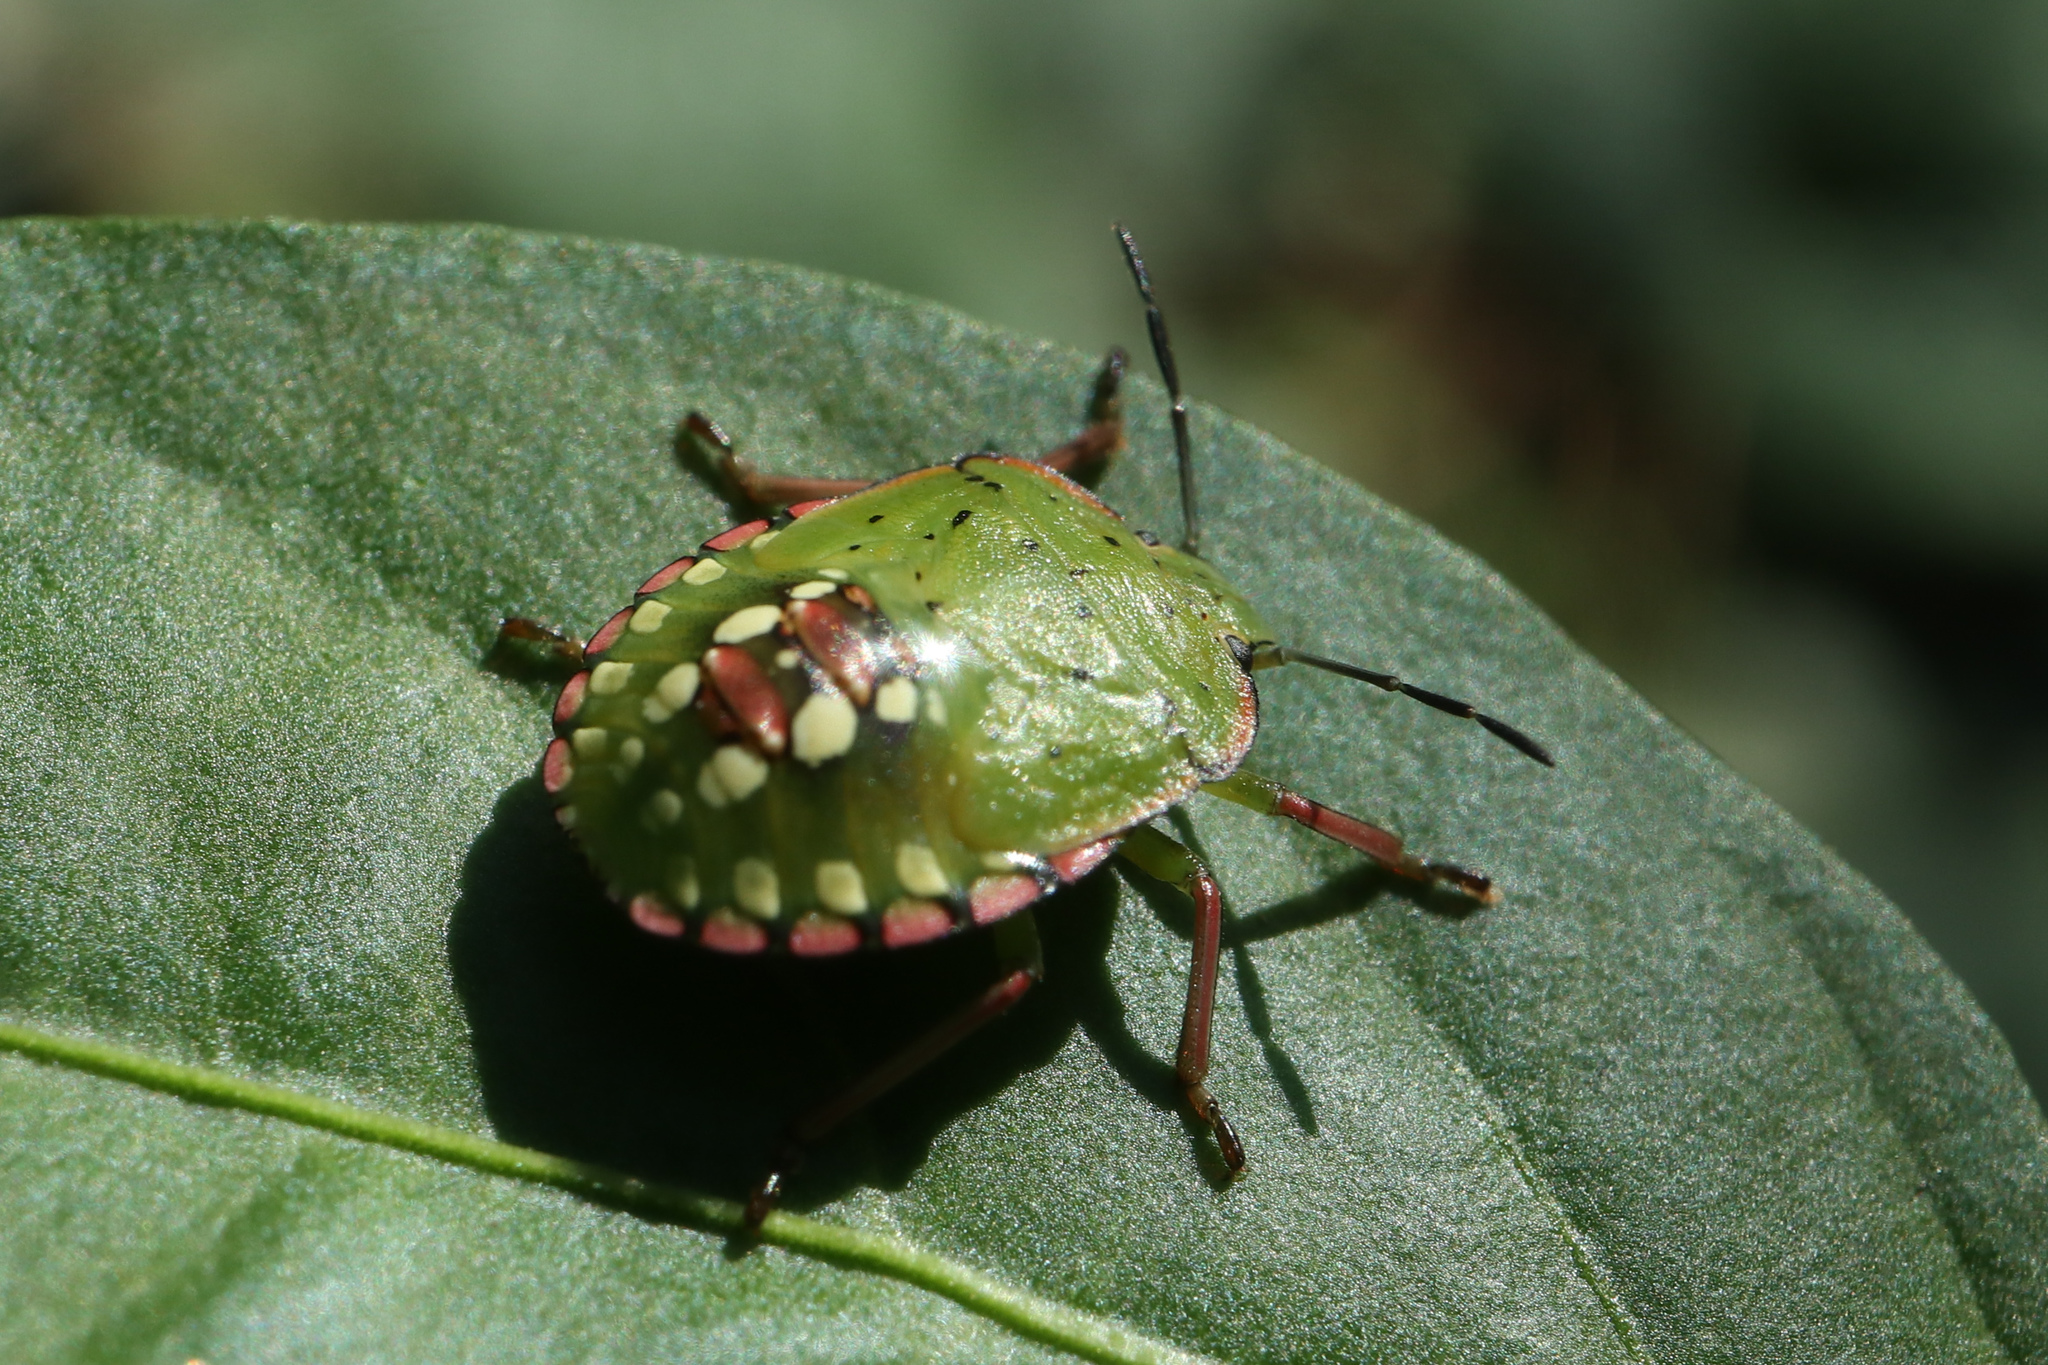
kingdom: Animalia
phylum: Arthropoda
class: Insecta
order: Hemiptera
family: Pentatomidae
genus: Nezara
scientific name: Nezara viridula
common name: Southern green stink bug
